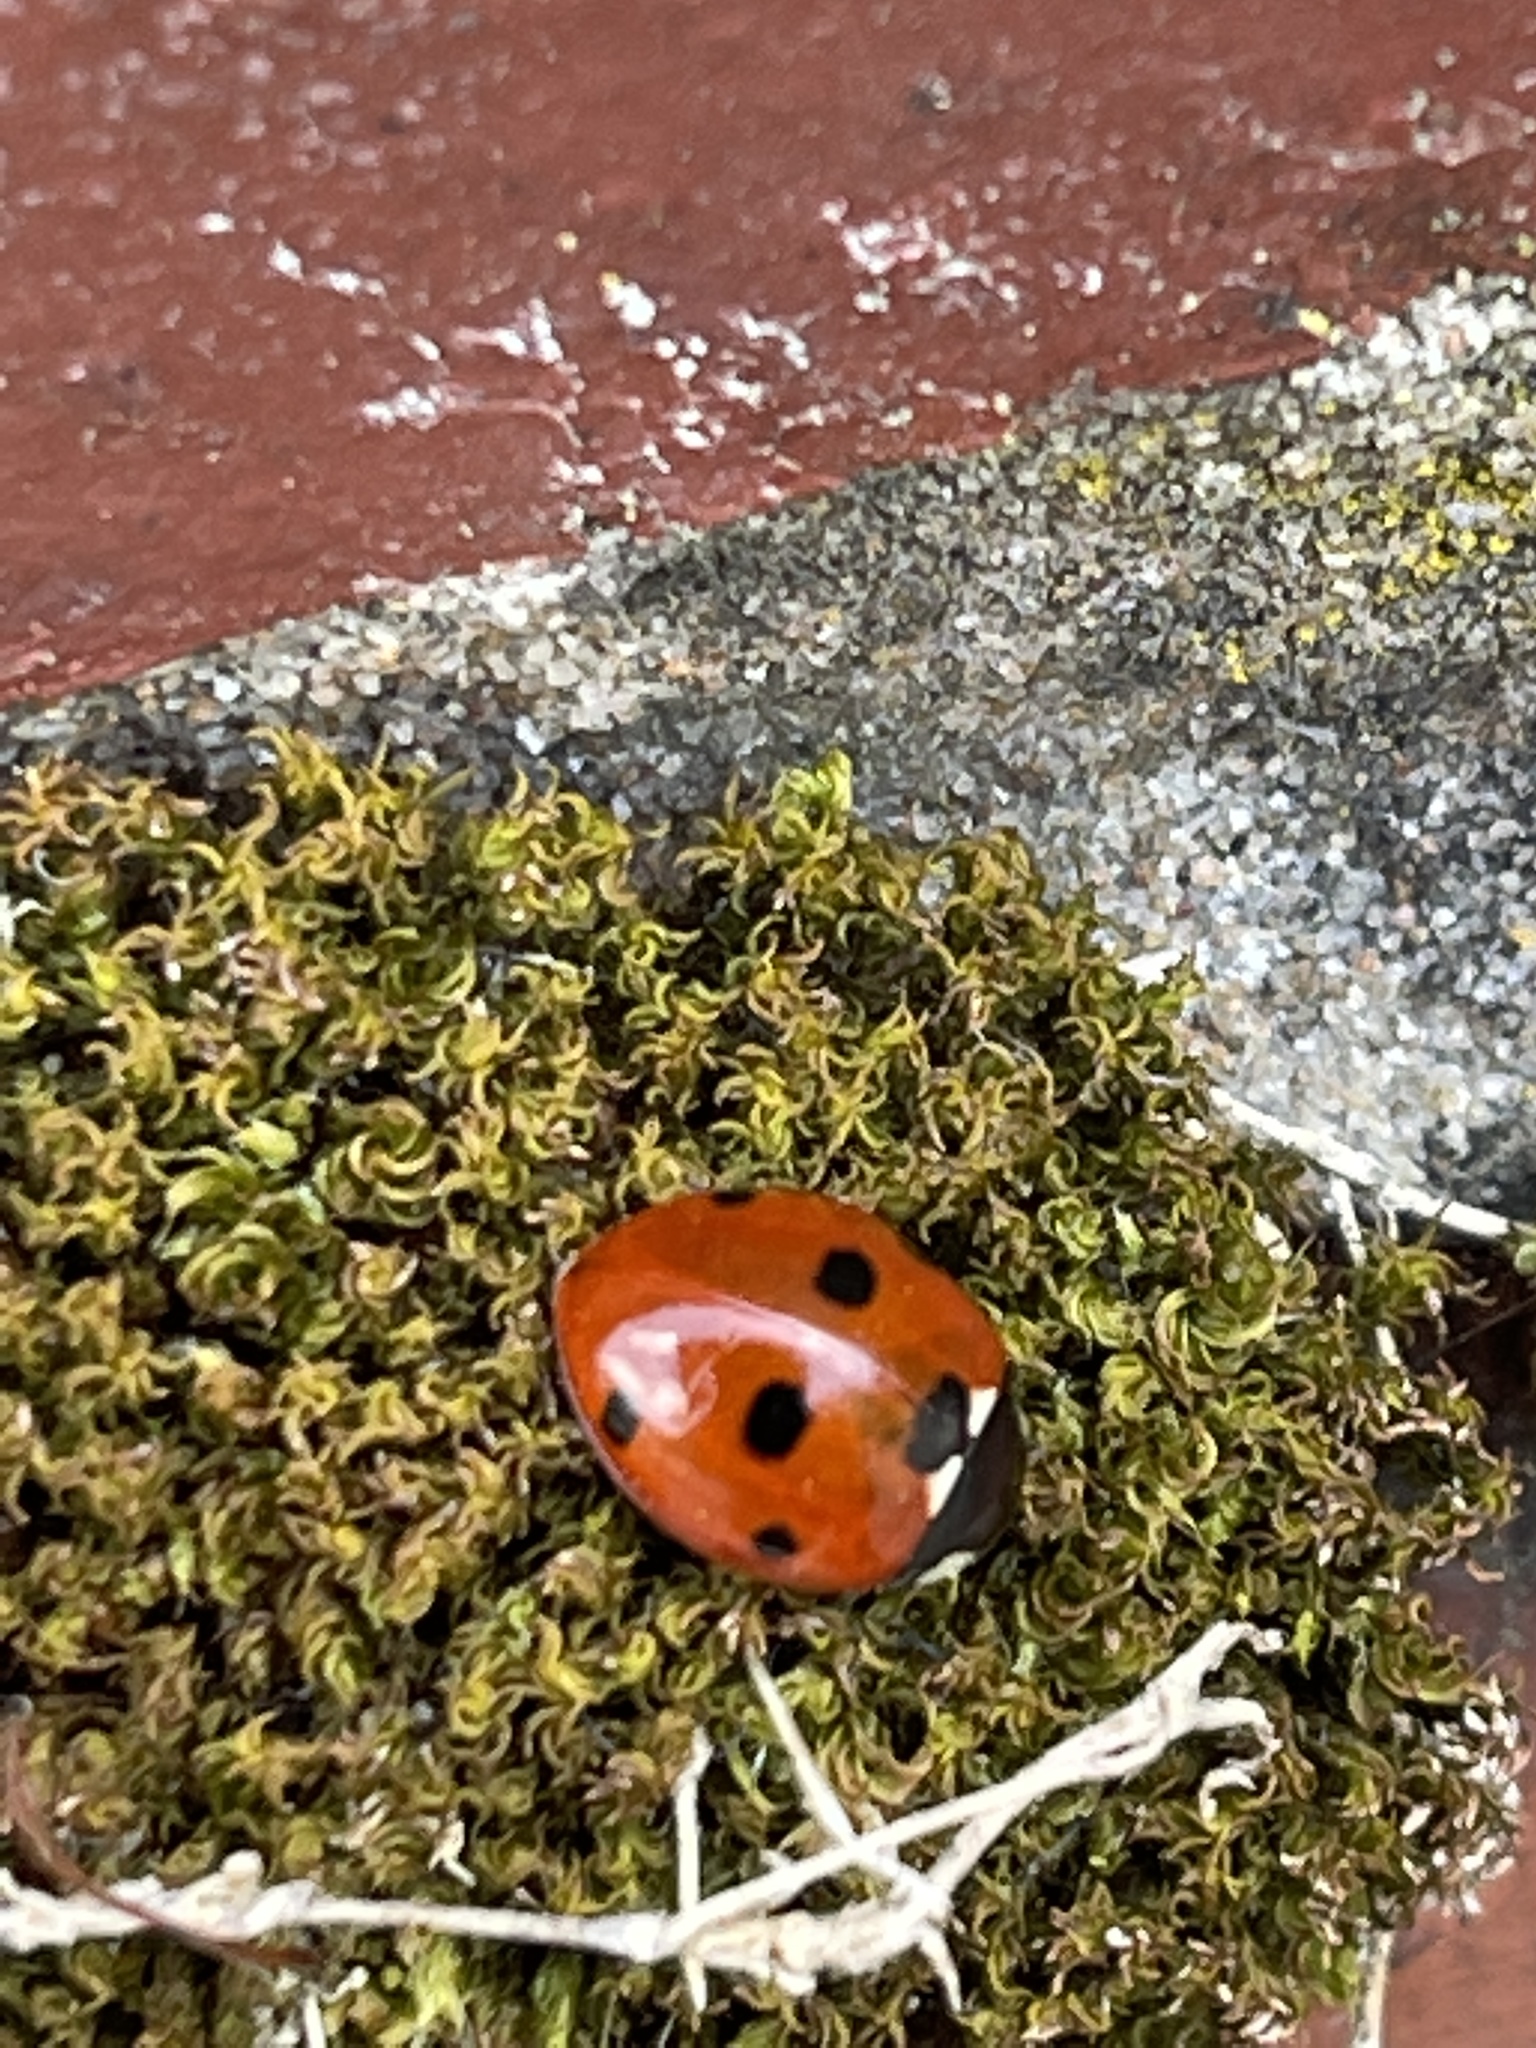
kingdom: Animalia
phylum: Arthropoda
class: Insecta
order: Coleoptera
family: Coccinellidae
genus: Coccinella
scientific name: Coccinella septempunctata
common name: Sevenspotted lady beetle
